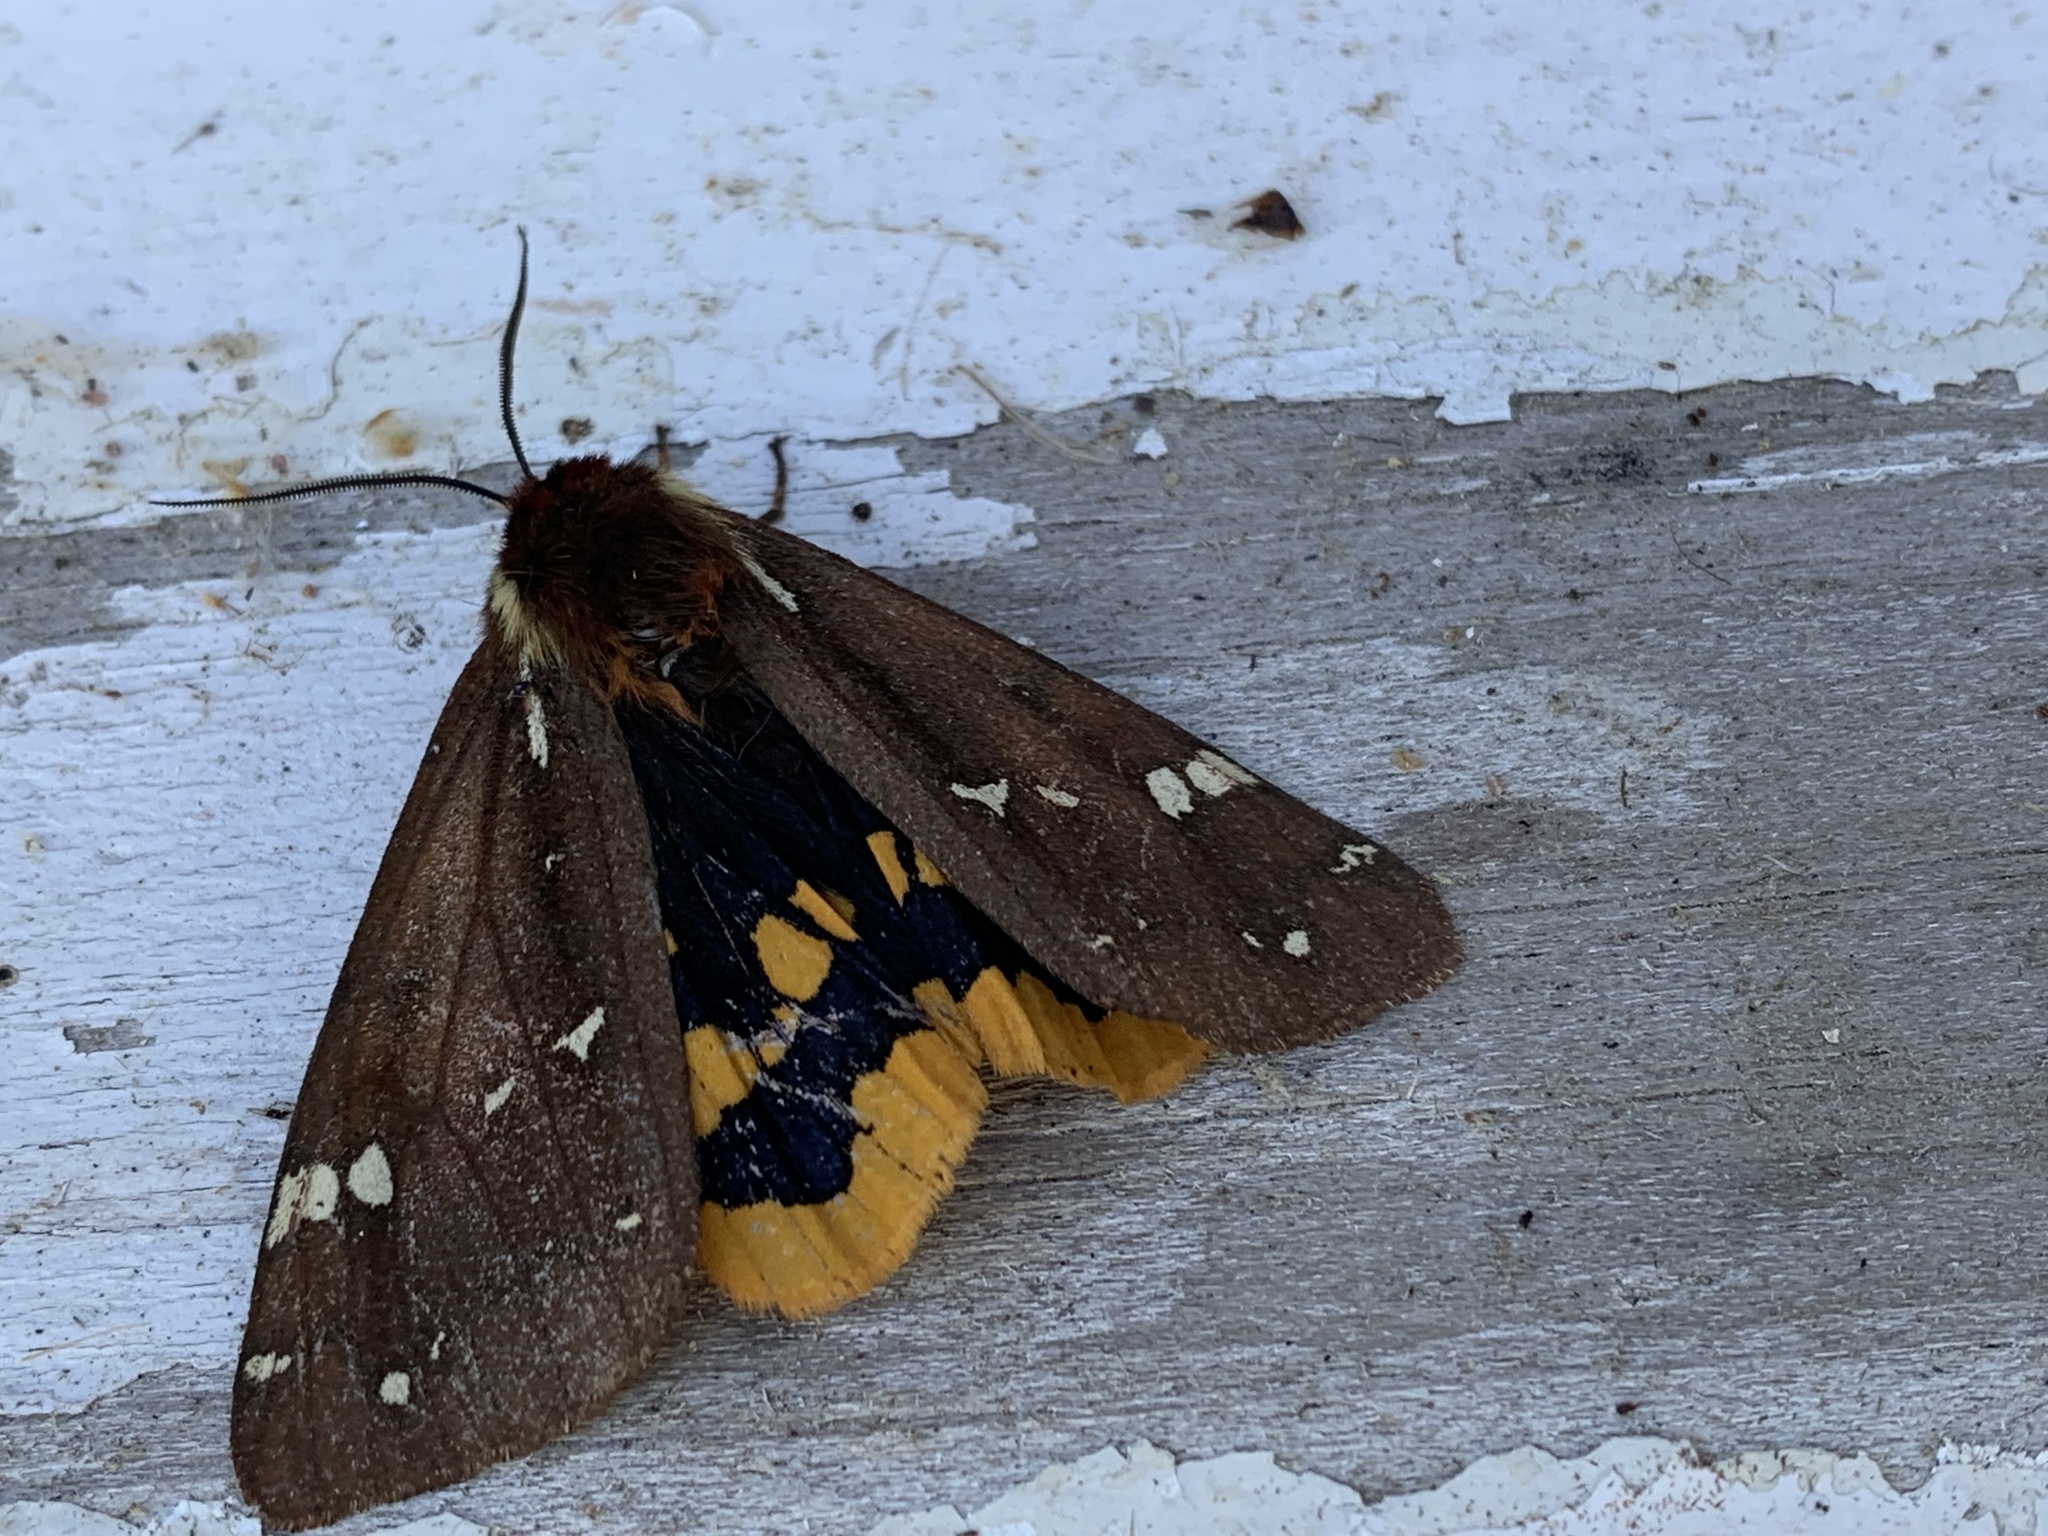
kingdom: Animalia
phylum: Arthropoda
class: Insecta
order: Lepidoptera
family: Erebidae
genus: Arctia
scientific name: Arctia parthenos
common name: St. lawrence tiger moth
